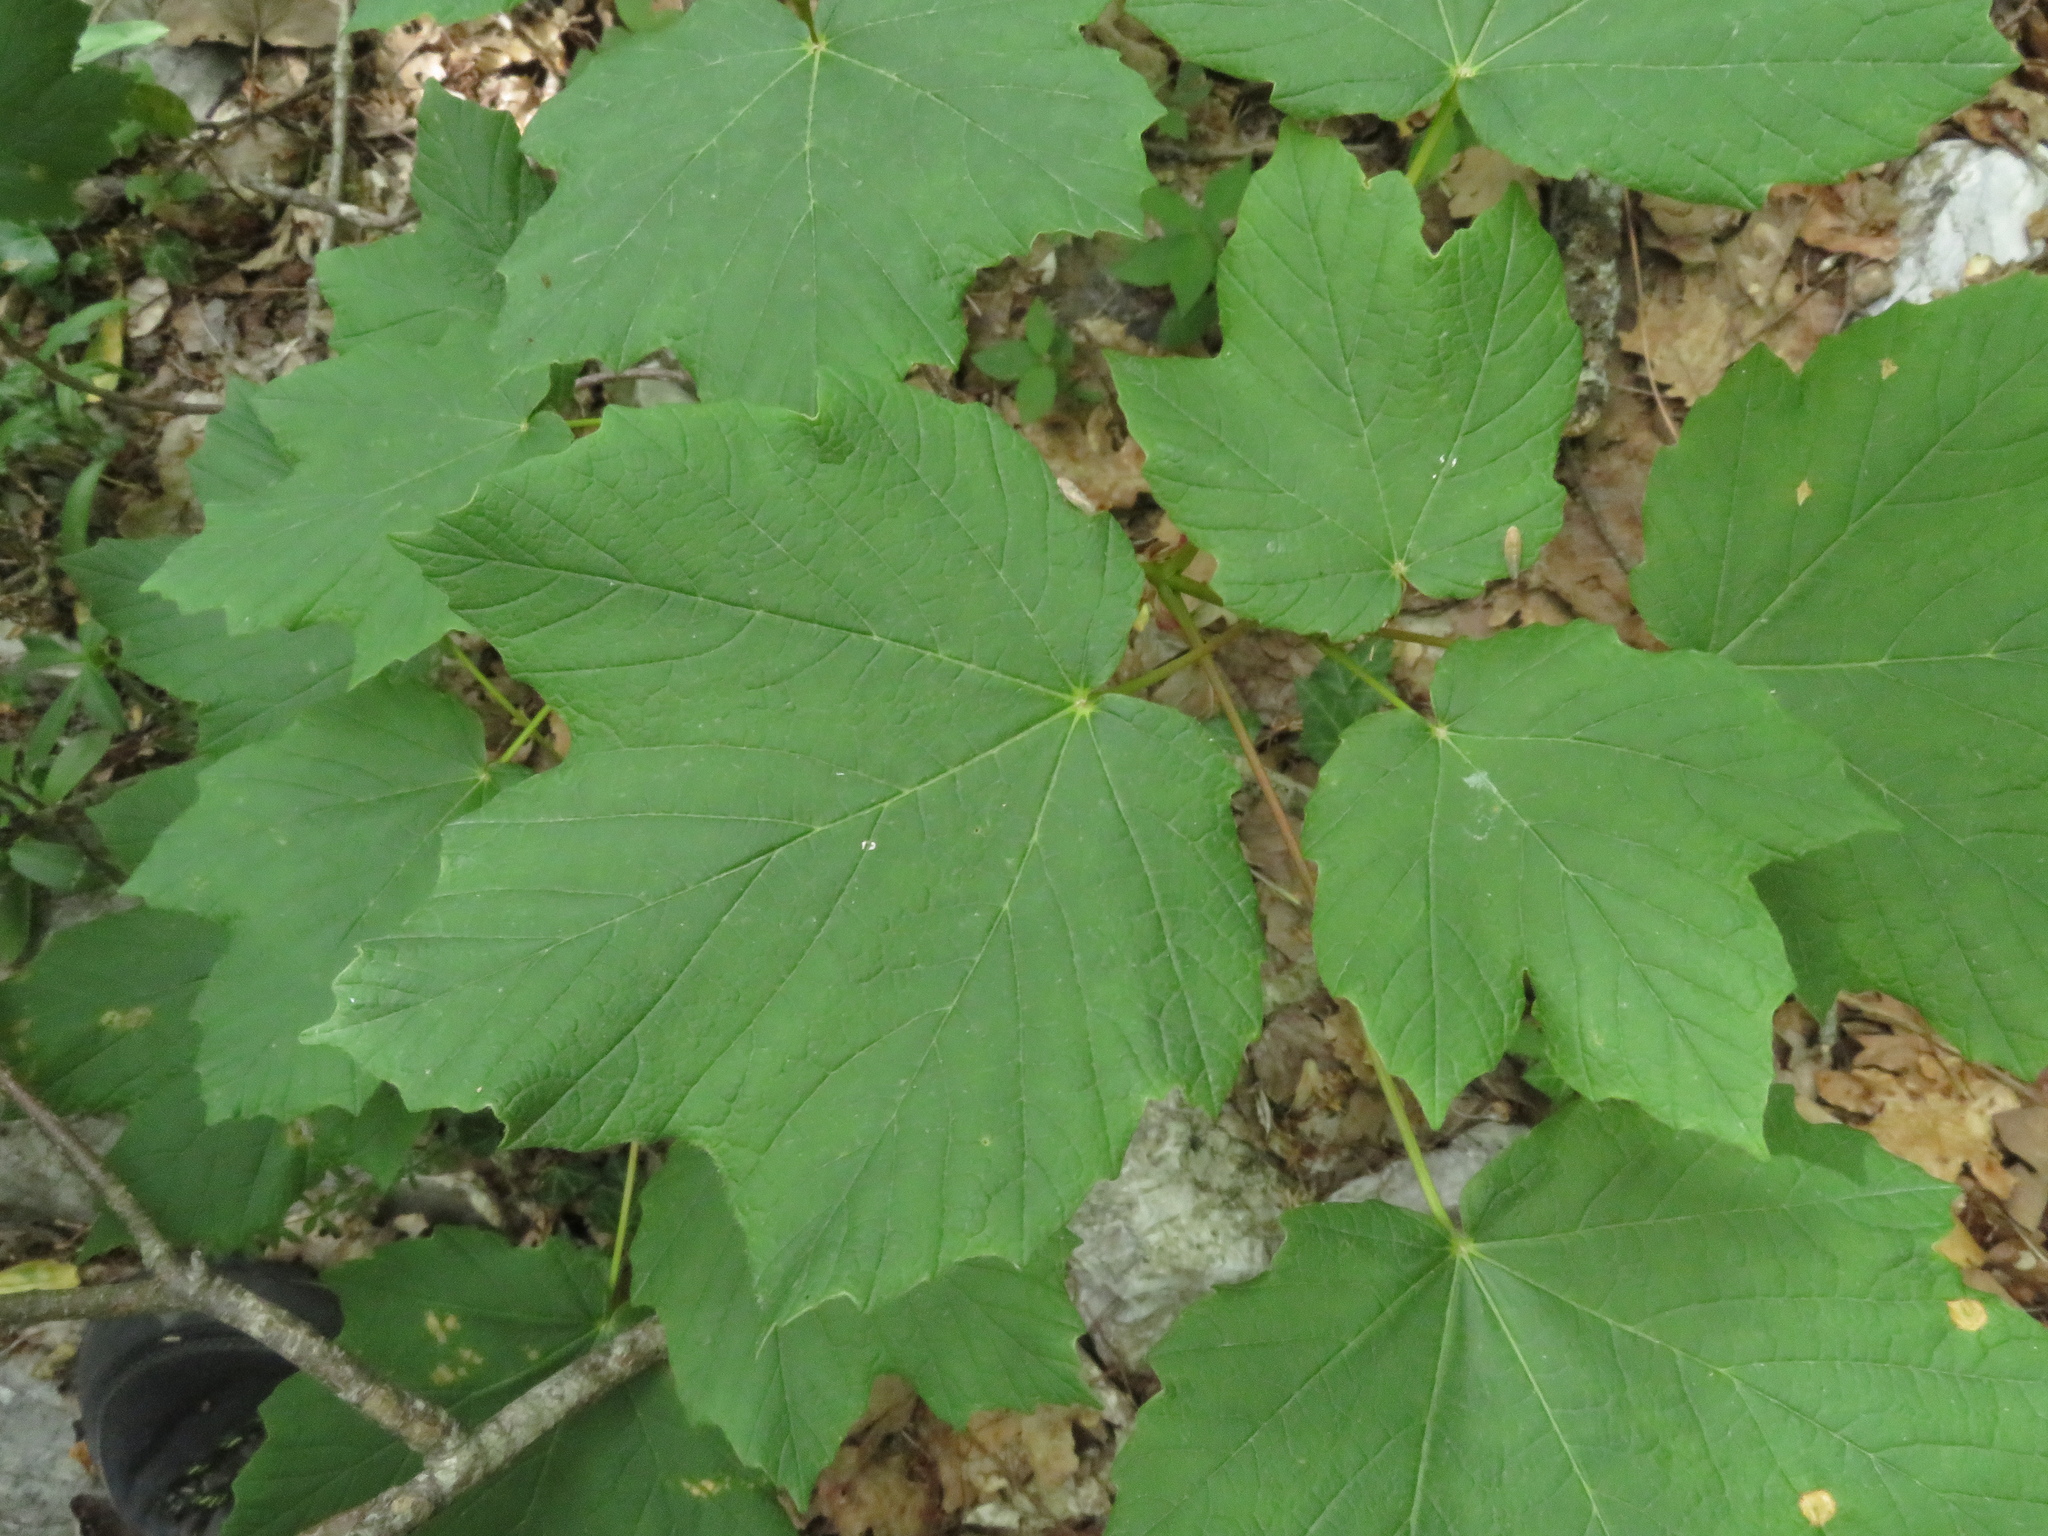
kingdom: Plantae
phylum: Tracheophyta
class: Magnoliopsida
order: Sapindales
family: Sapindaceae
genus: Acer
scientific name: Acer opalus
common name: Italian maple
